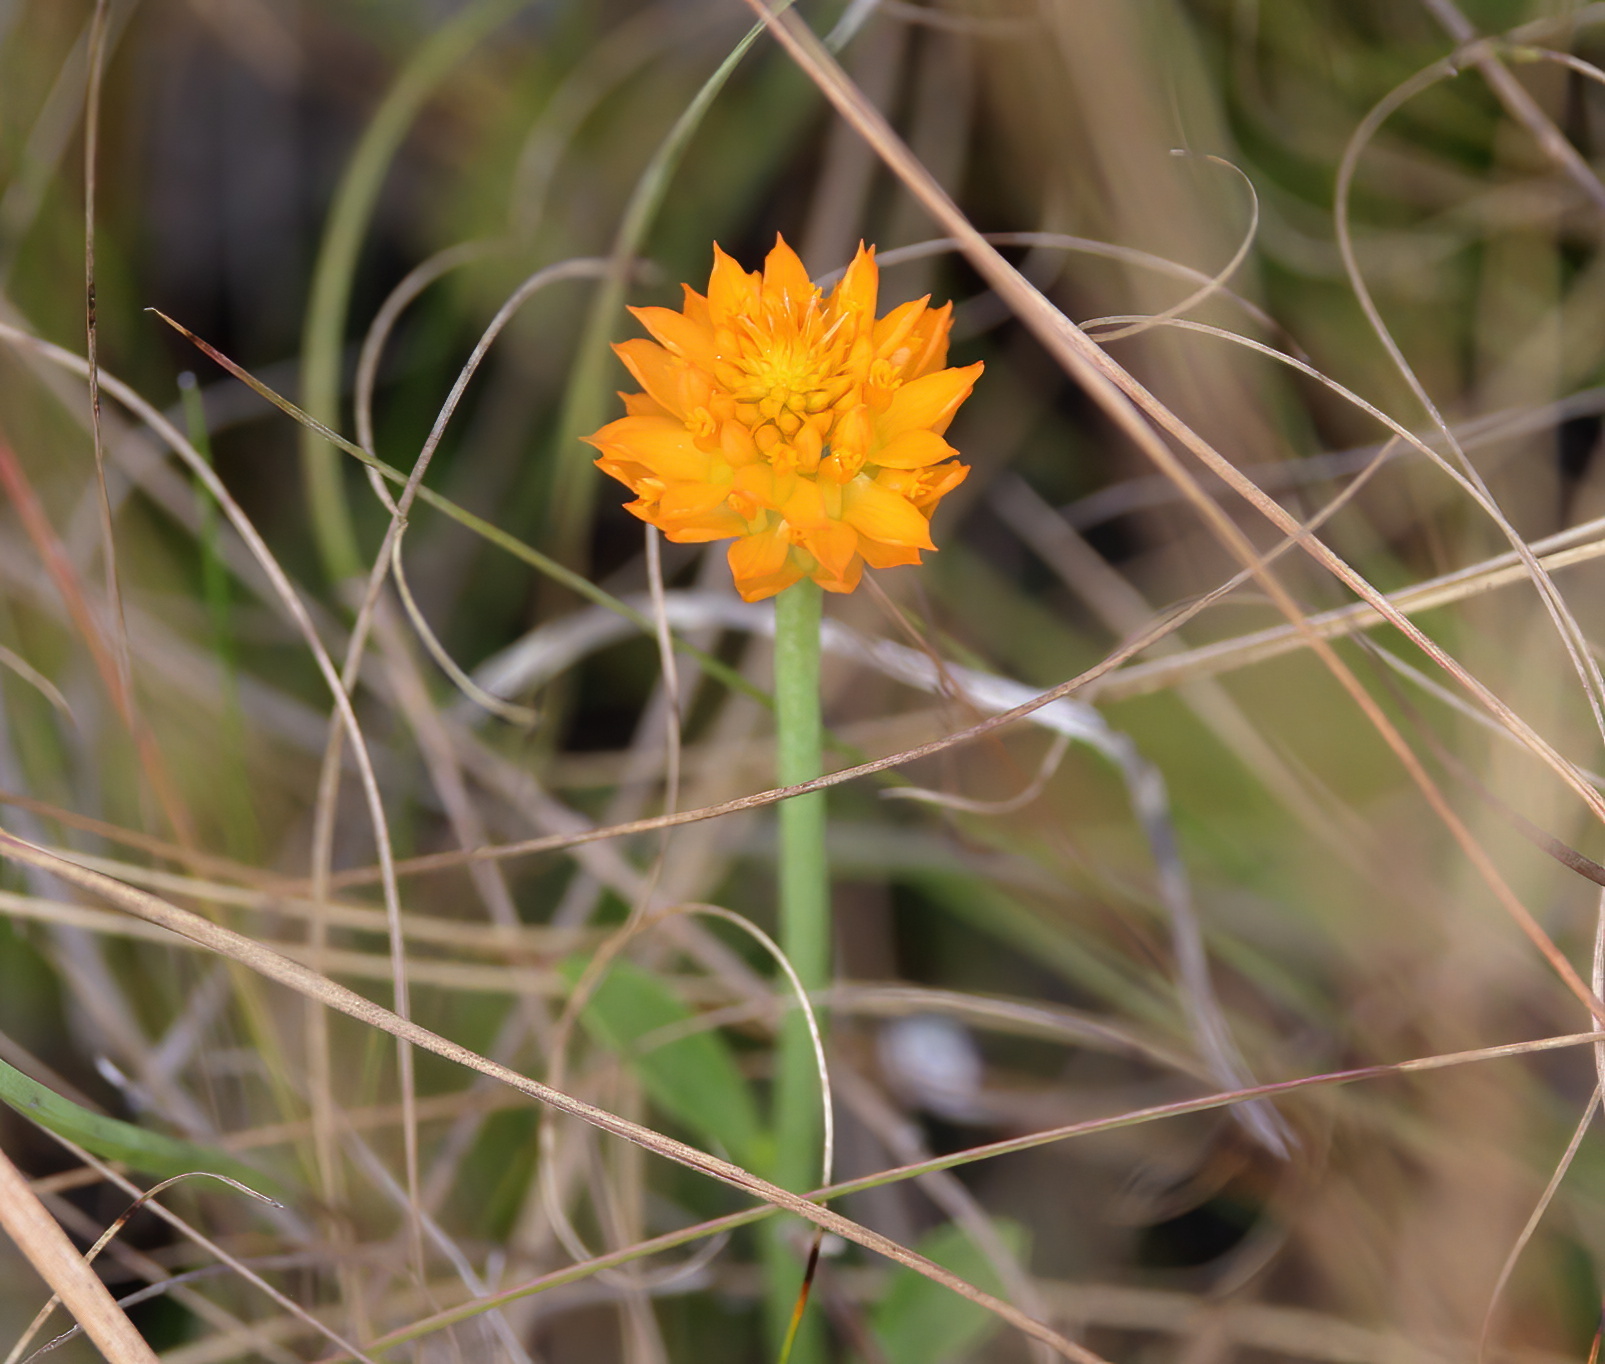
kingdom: Plantae
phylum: Tracheophyta
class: Magnoliopsida
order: Fabales
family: Polygalaceae
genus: Polygala
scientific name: Polygala lutea
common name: Orange milkwort
